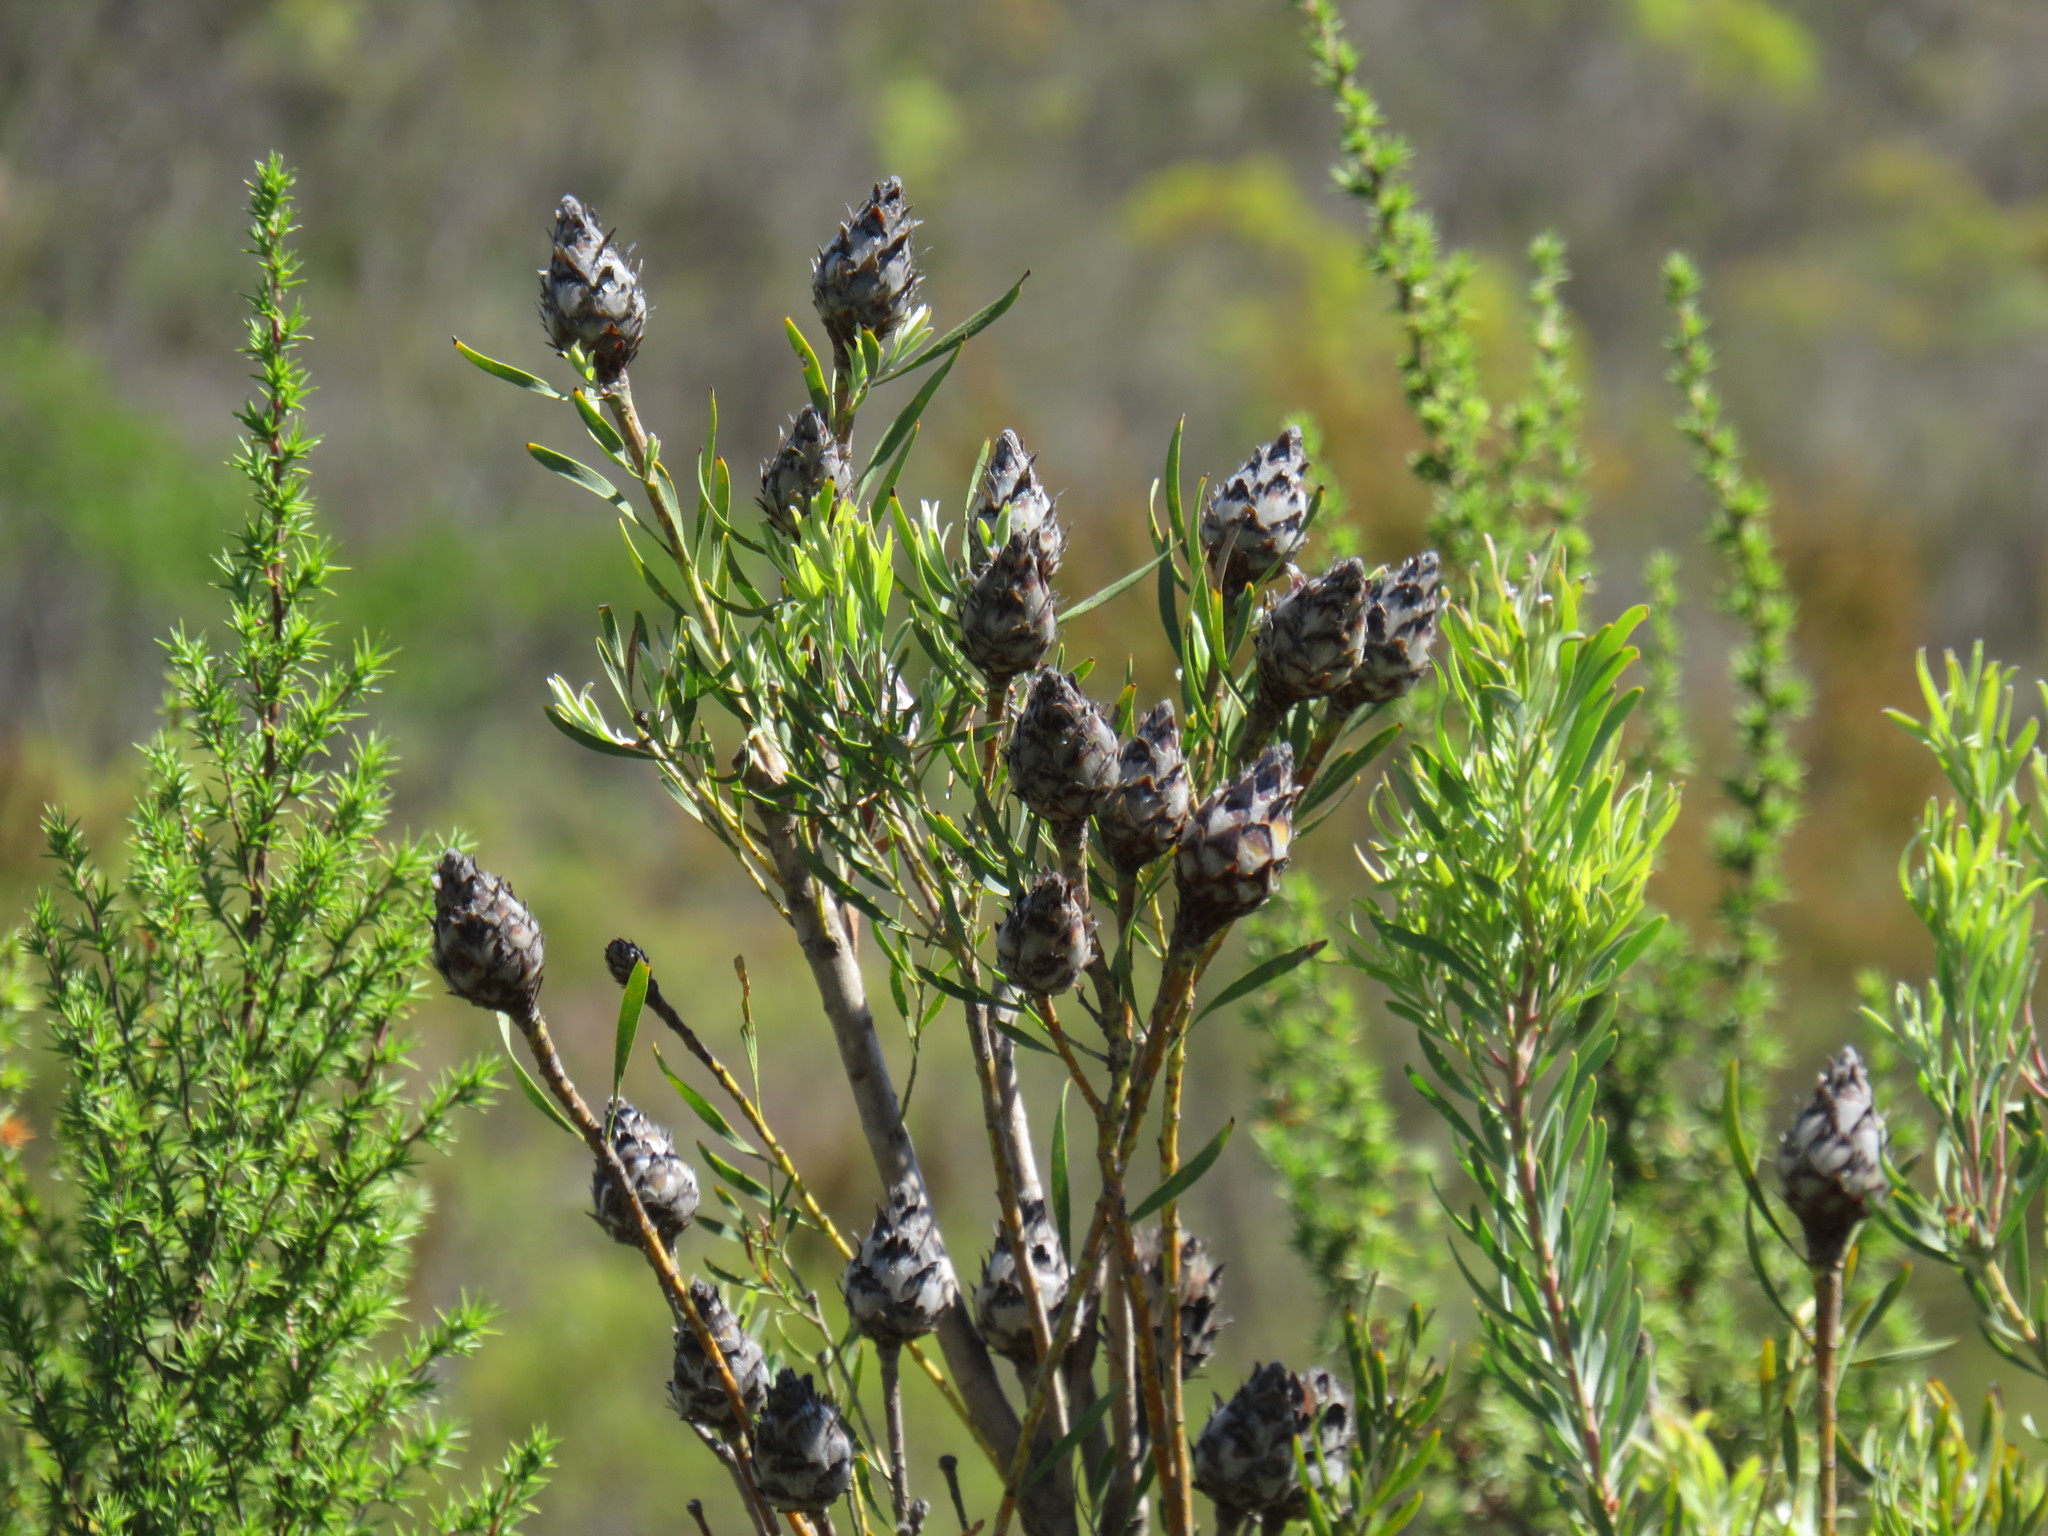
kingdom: Plantae
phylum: Tracheophyta
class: Magnoliopsida
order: Proteales
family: Proteaceae
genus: Leucadendron
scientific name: Leucadendron rubrum
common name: Spinning top
